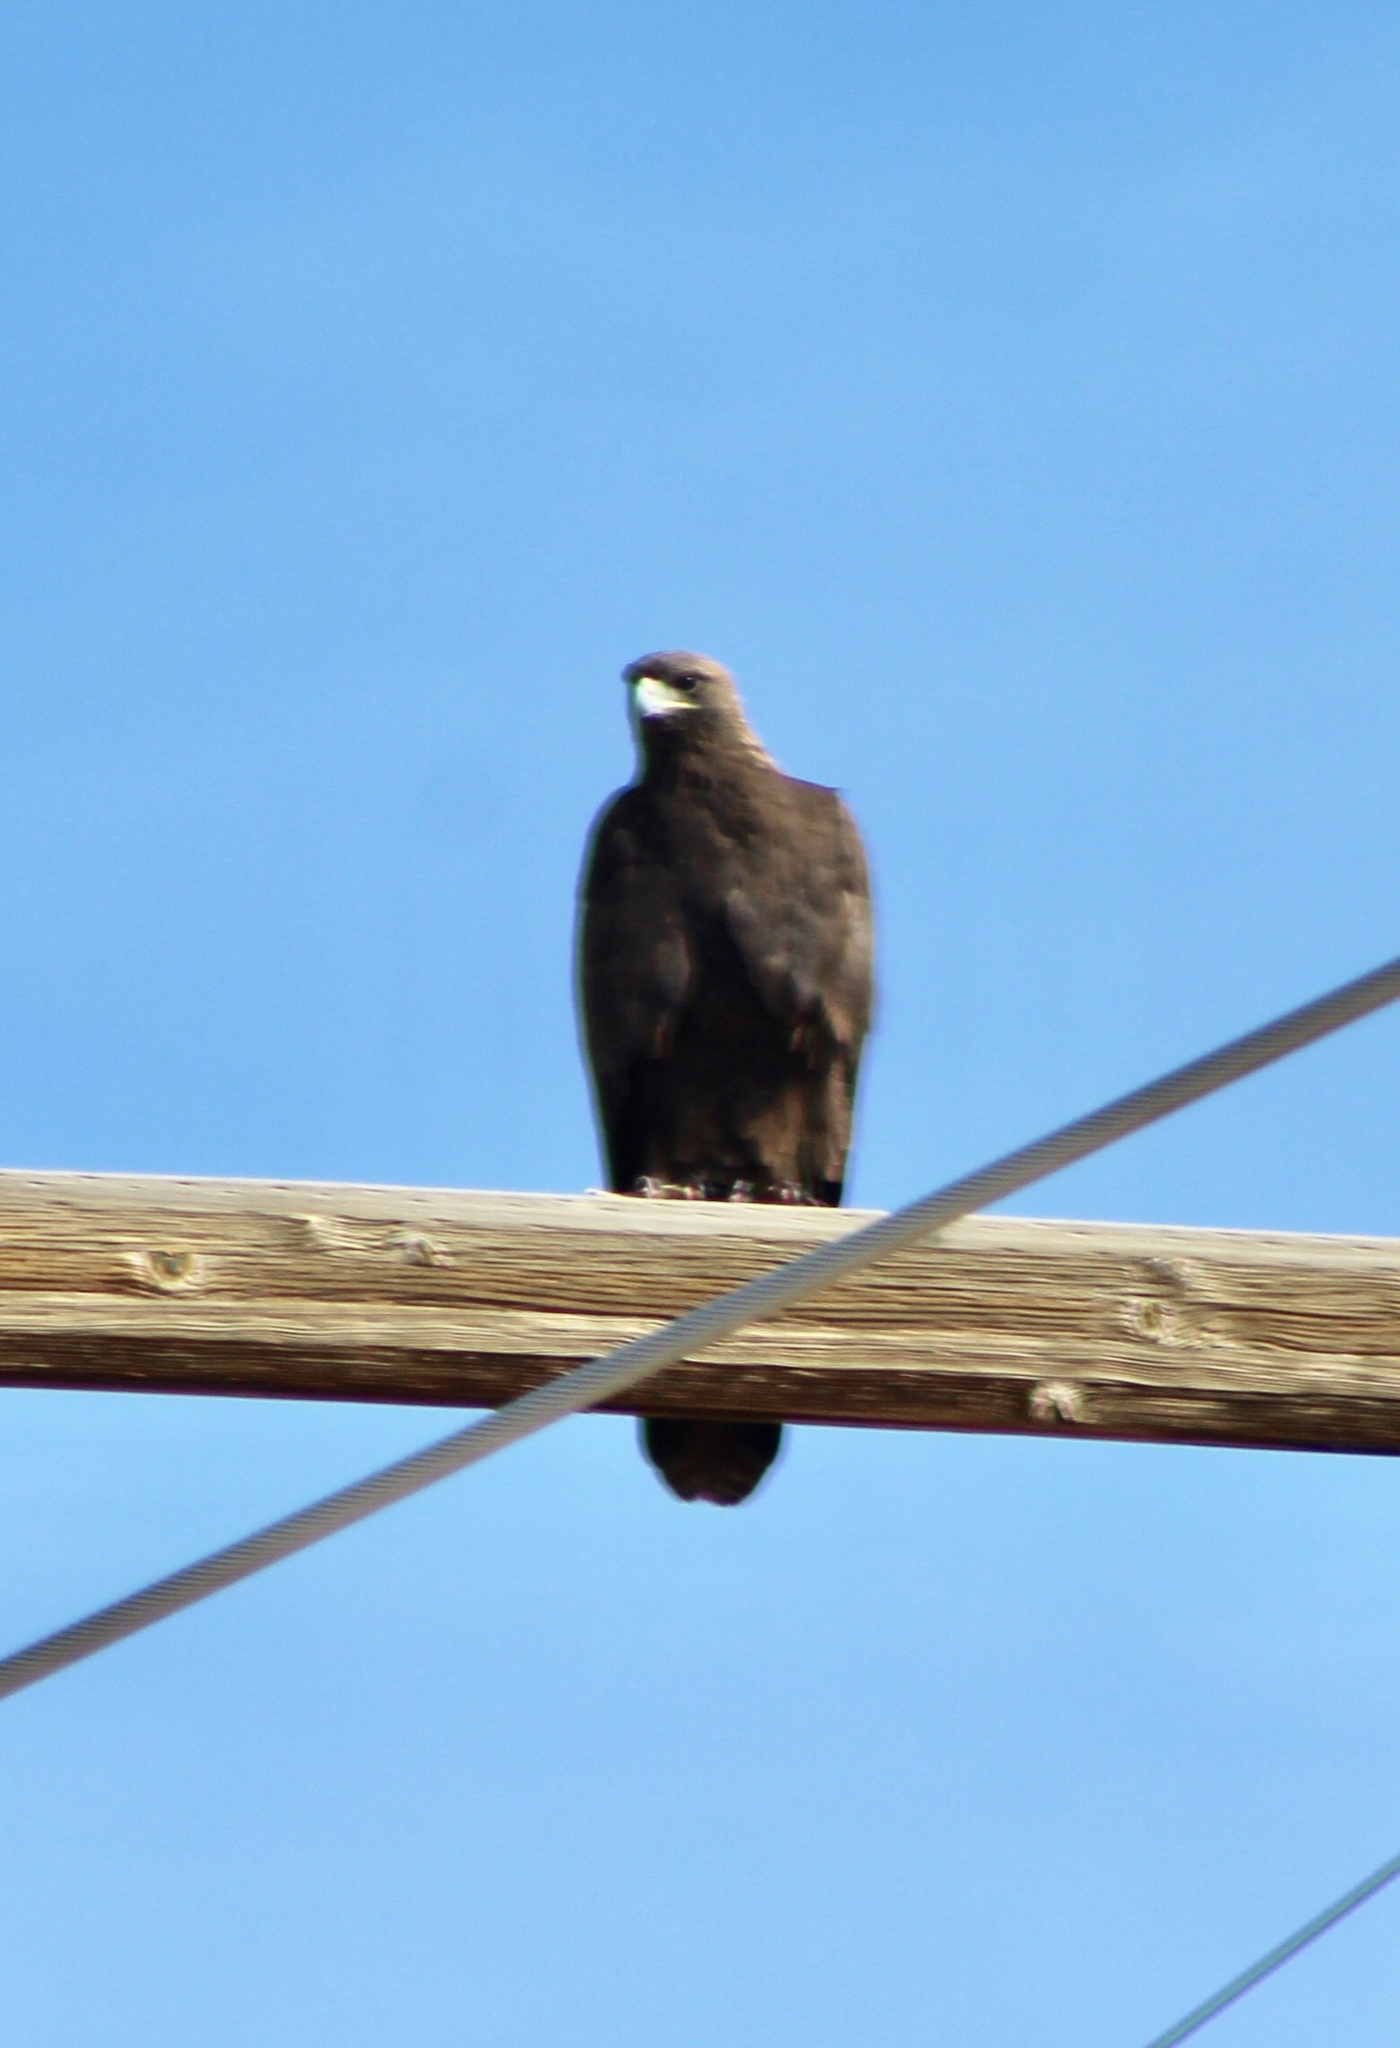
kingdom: Animalia
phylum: Chordata
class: Aves
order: Accipitriformes
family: Accipitridae
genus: Aquila
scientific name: Aquila chrysaetos
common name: Golden eagle
